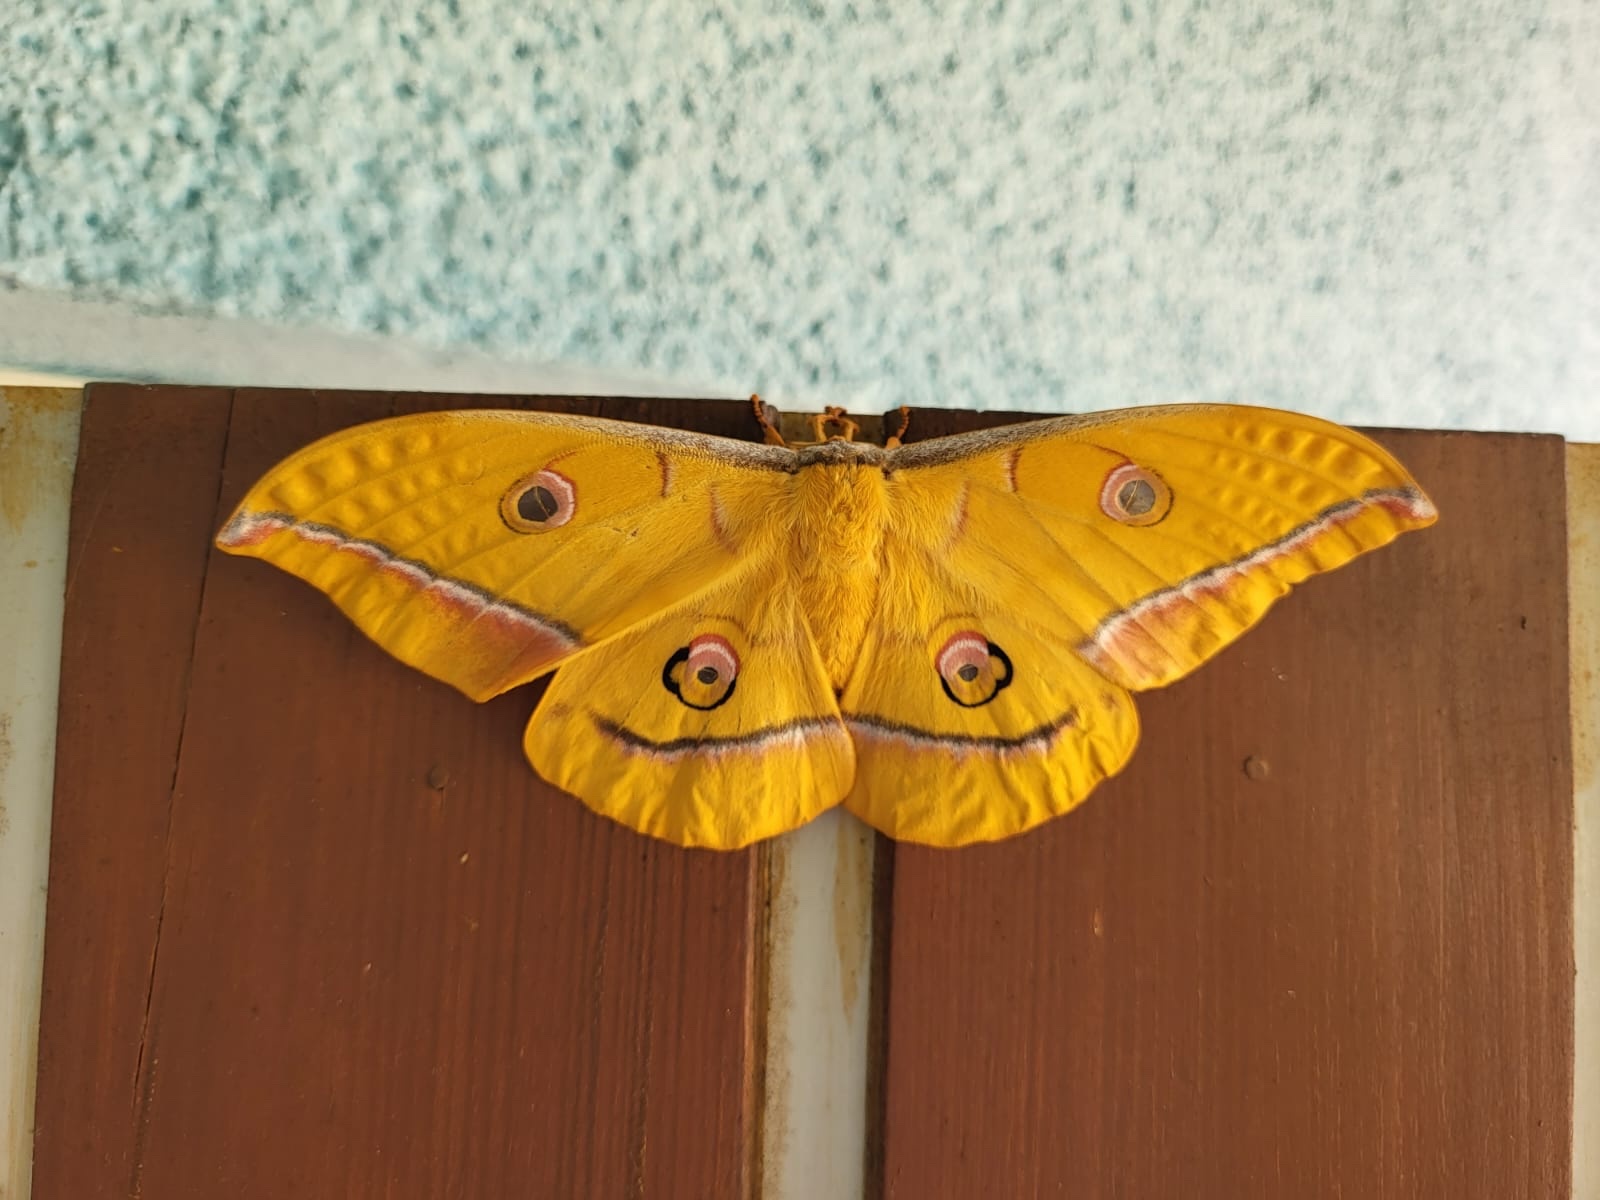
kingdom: Animalia
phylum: Arthropoda
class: Insecta
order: Lepidoptera
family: Saturniidae
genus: Antheraea
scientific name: Antheraea yamamai
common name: Japanese oak silk moth
